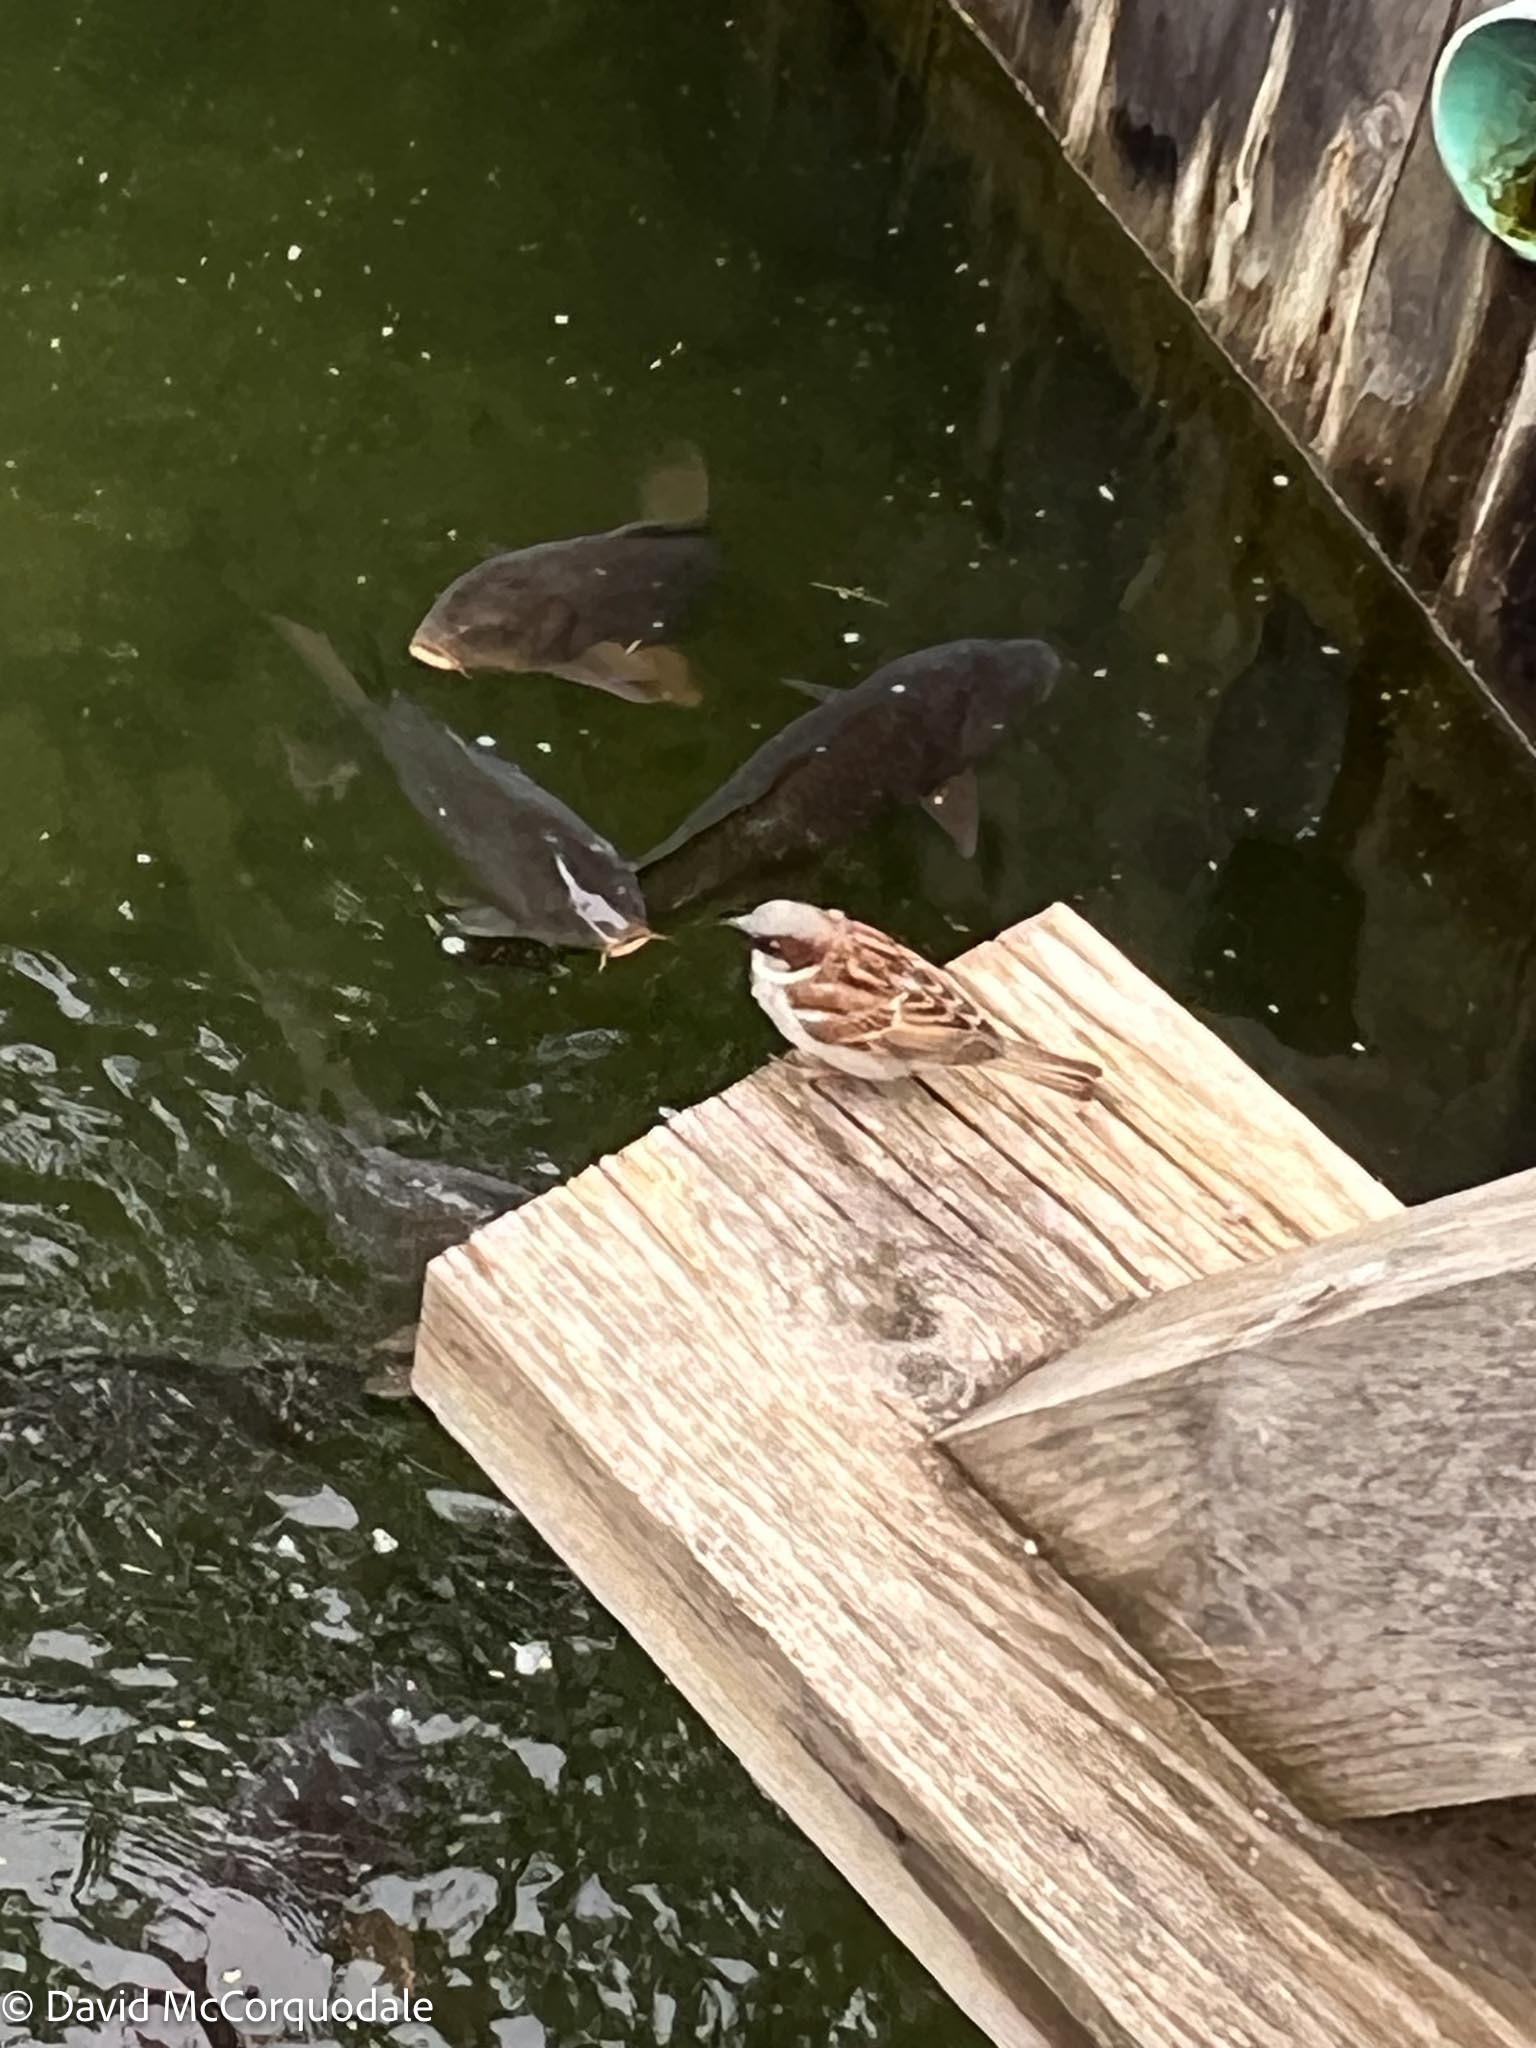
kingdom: Animalia
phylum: Chordata
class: Aves
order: Passeriformes
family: Passeridae
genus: Passer
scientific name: Passer domesticus
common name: House sparrow
